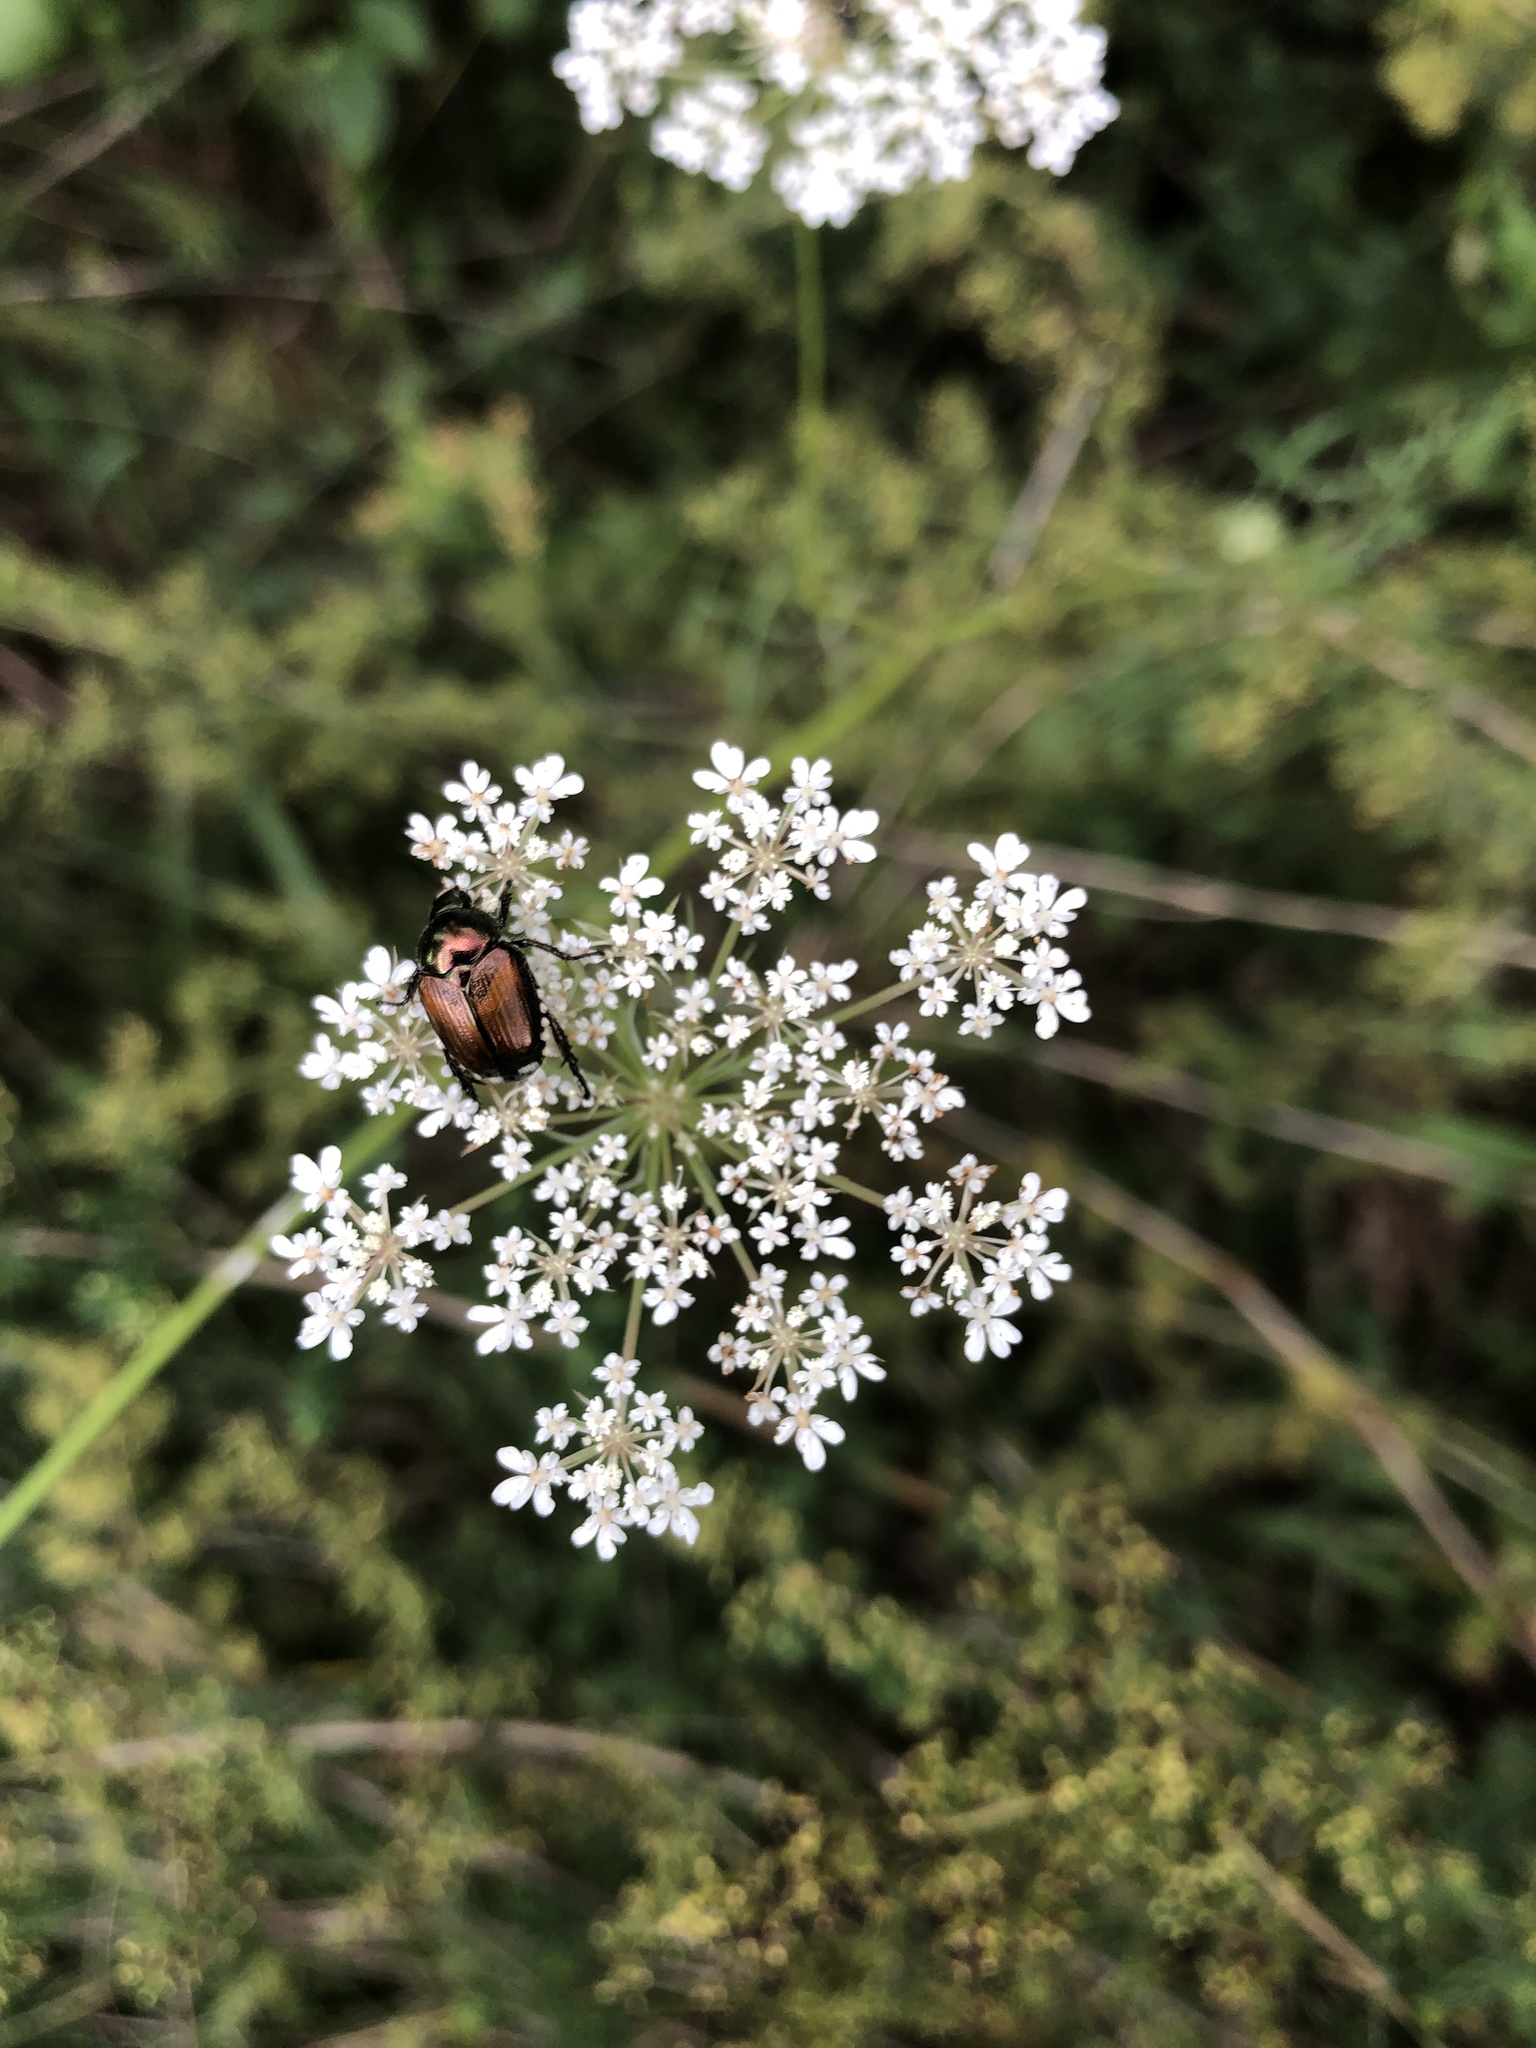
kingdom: Animalia
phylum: Arthropoda
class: Insecta
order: Coleoptera
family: Scarabaeidae
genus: Popillia
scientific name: Popillia japonica
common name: Japanese beetle
